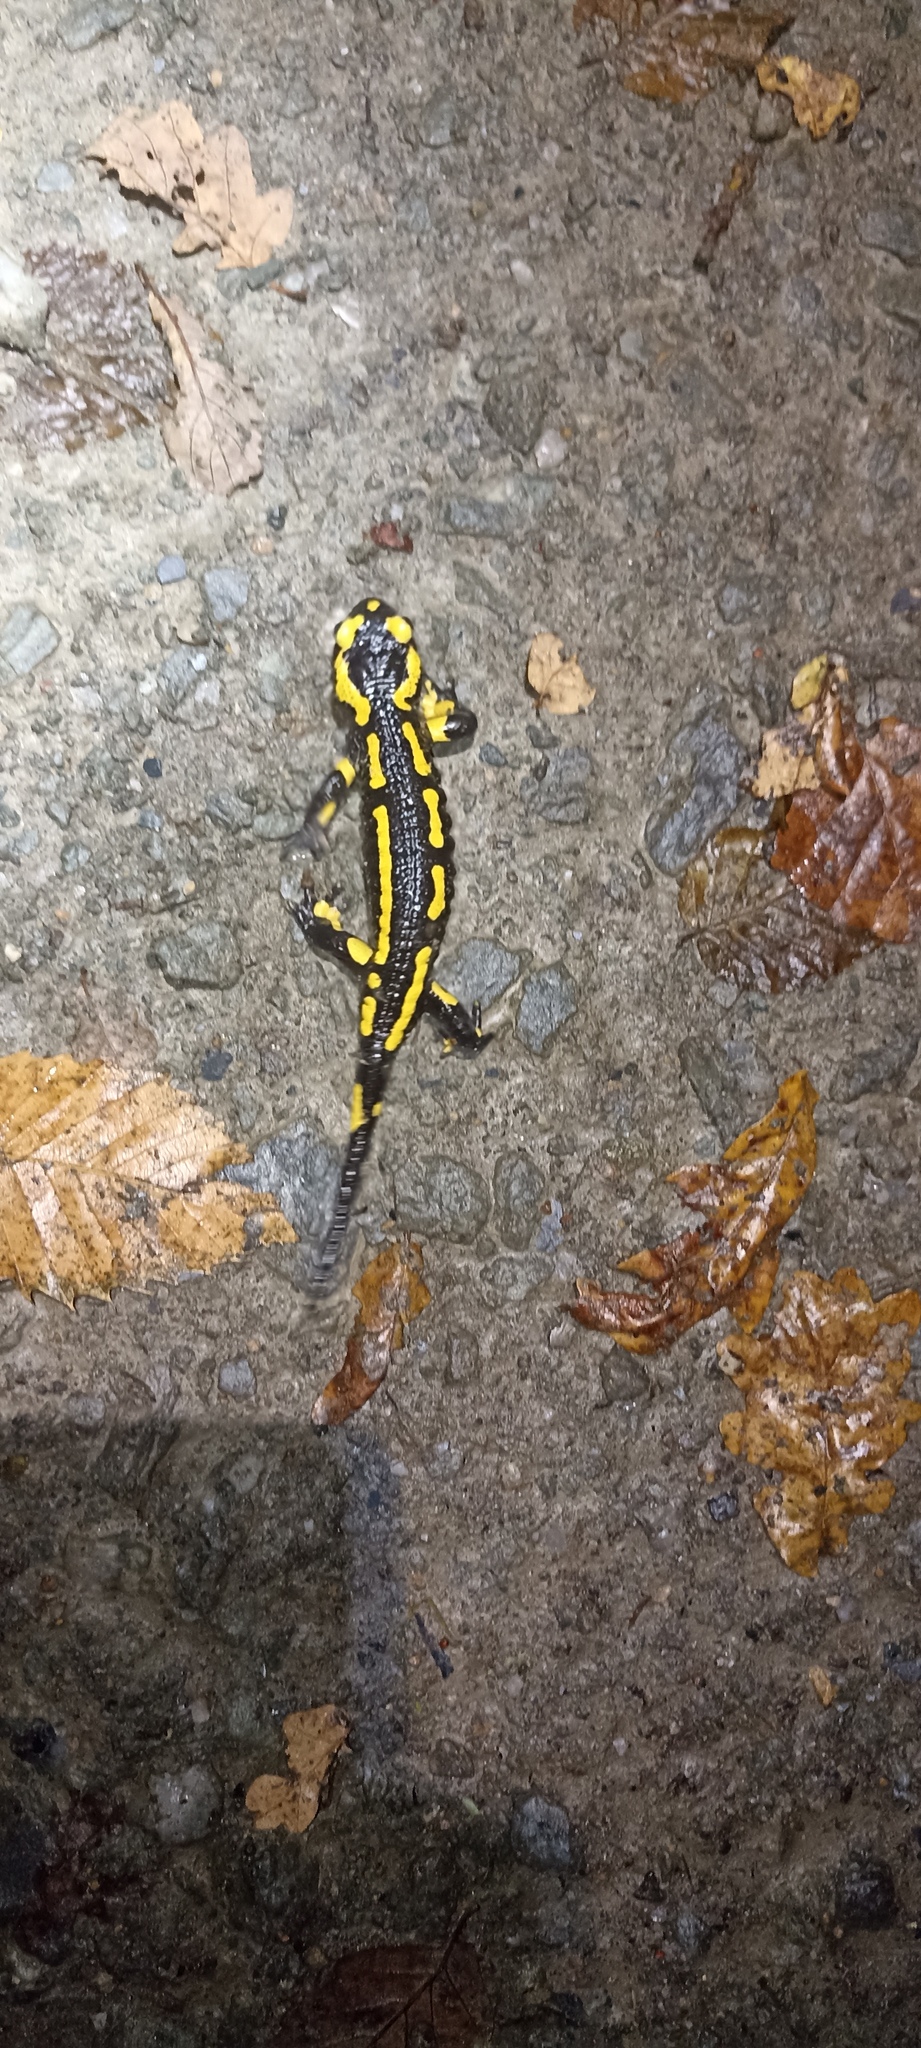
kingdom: Animalia
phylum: Chordata
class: Amphibia
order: Caudata
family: Salamandridae
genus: Salamandra
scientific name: Salamandra salamandra
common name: Fire salamander
